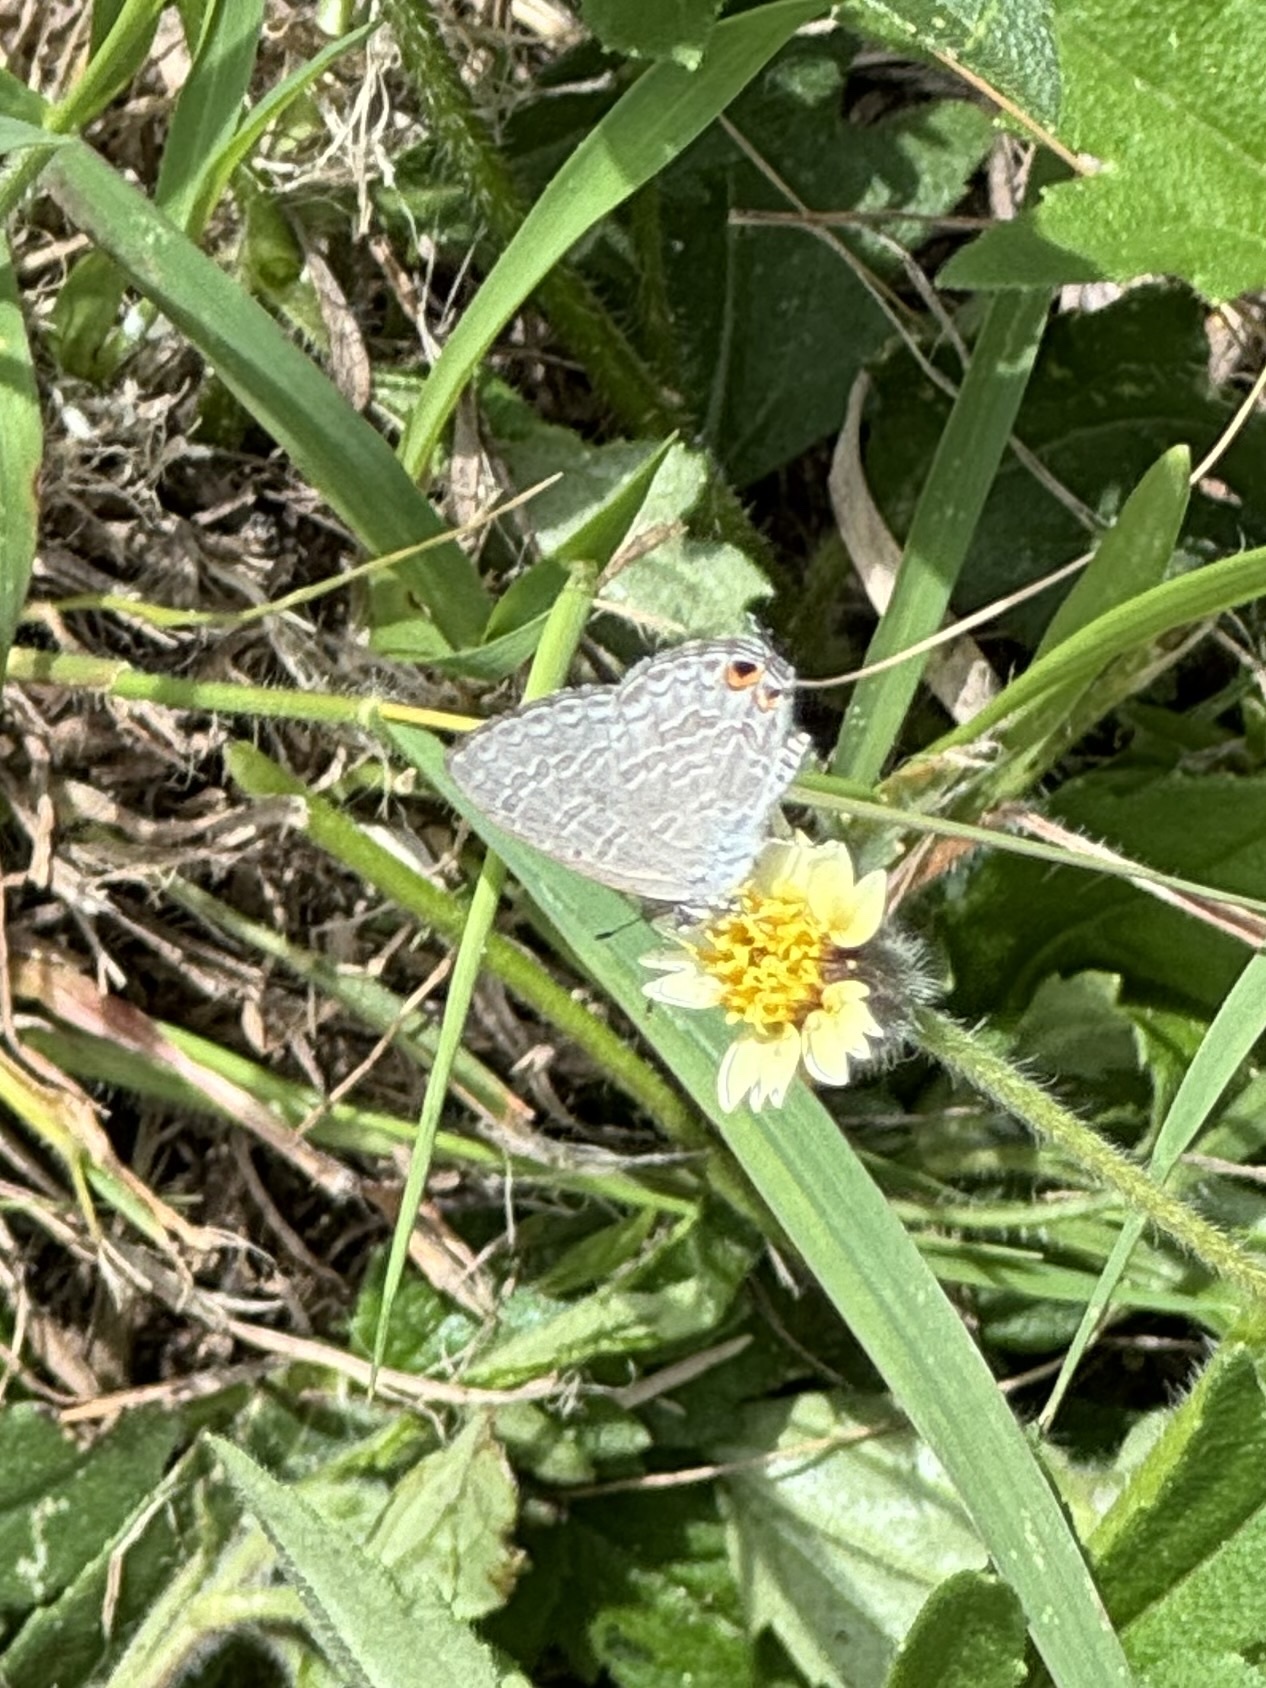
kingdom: Animalia
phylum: Arthropoda
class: Insecta
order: Lepidoptera
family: Lycaenidae
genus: Catopyrops
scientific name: Catopyrops florinda
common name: Speckled line-blue
